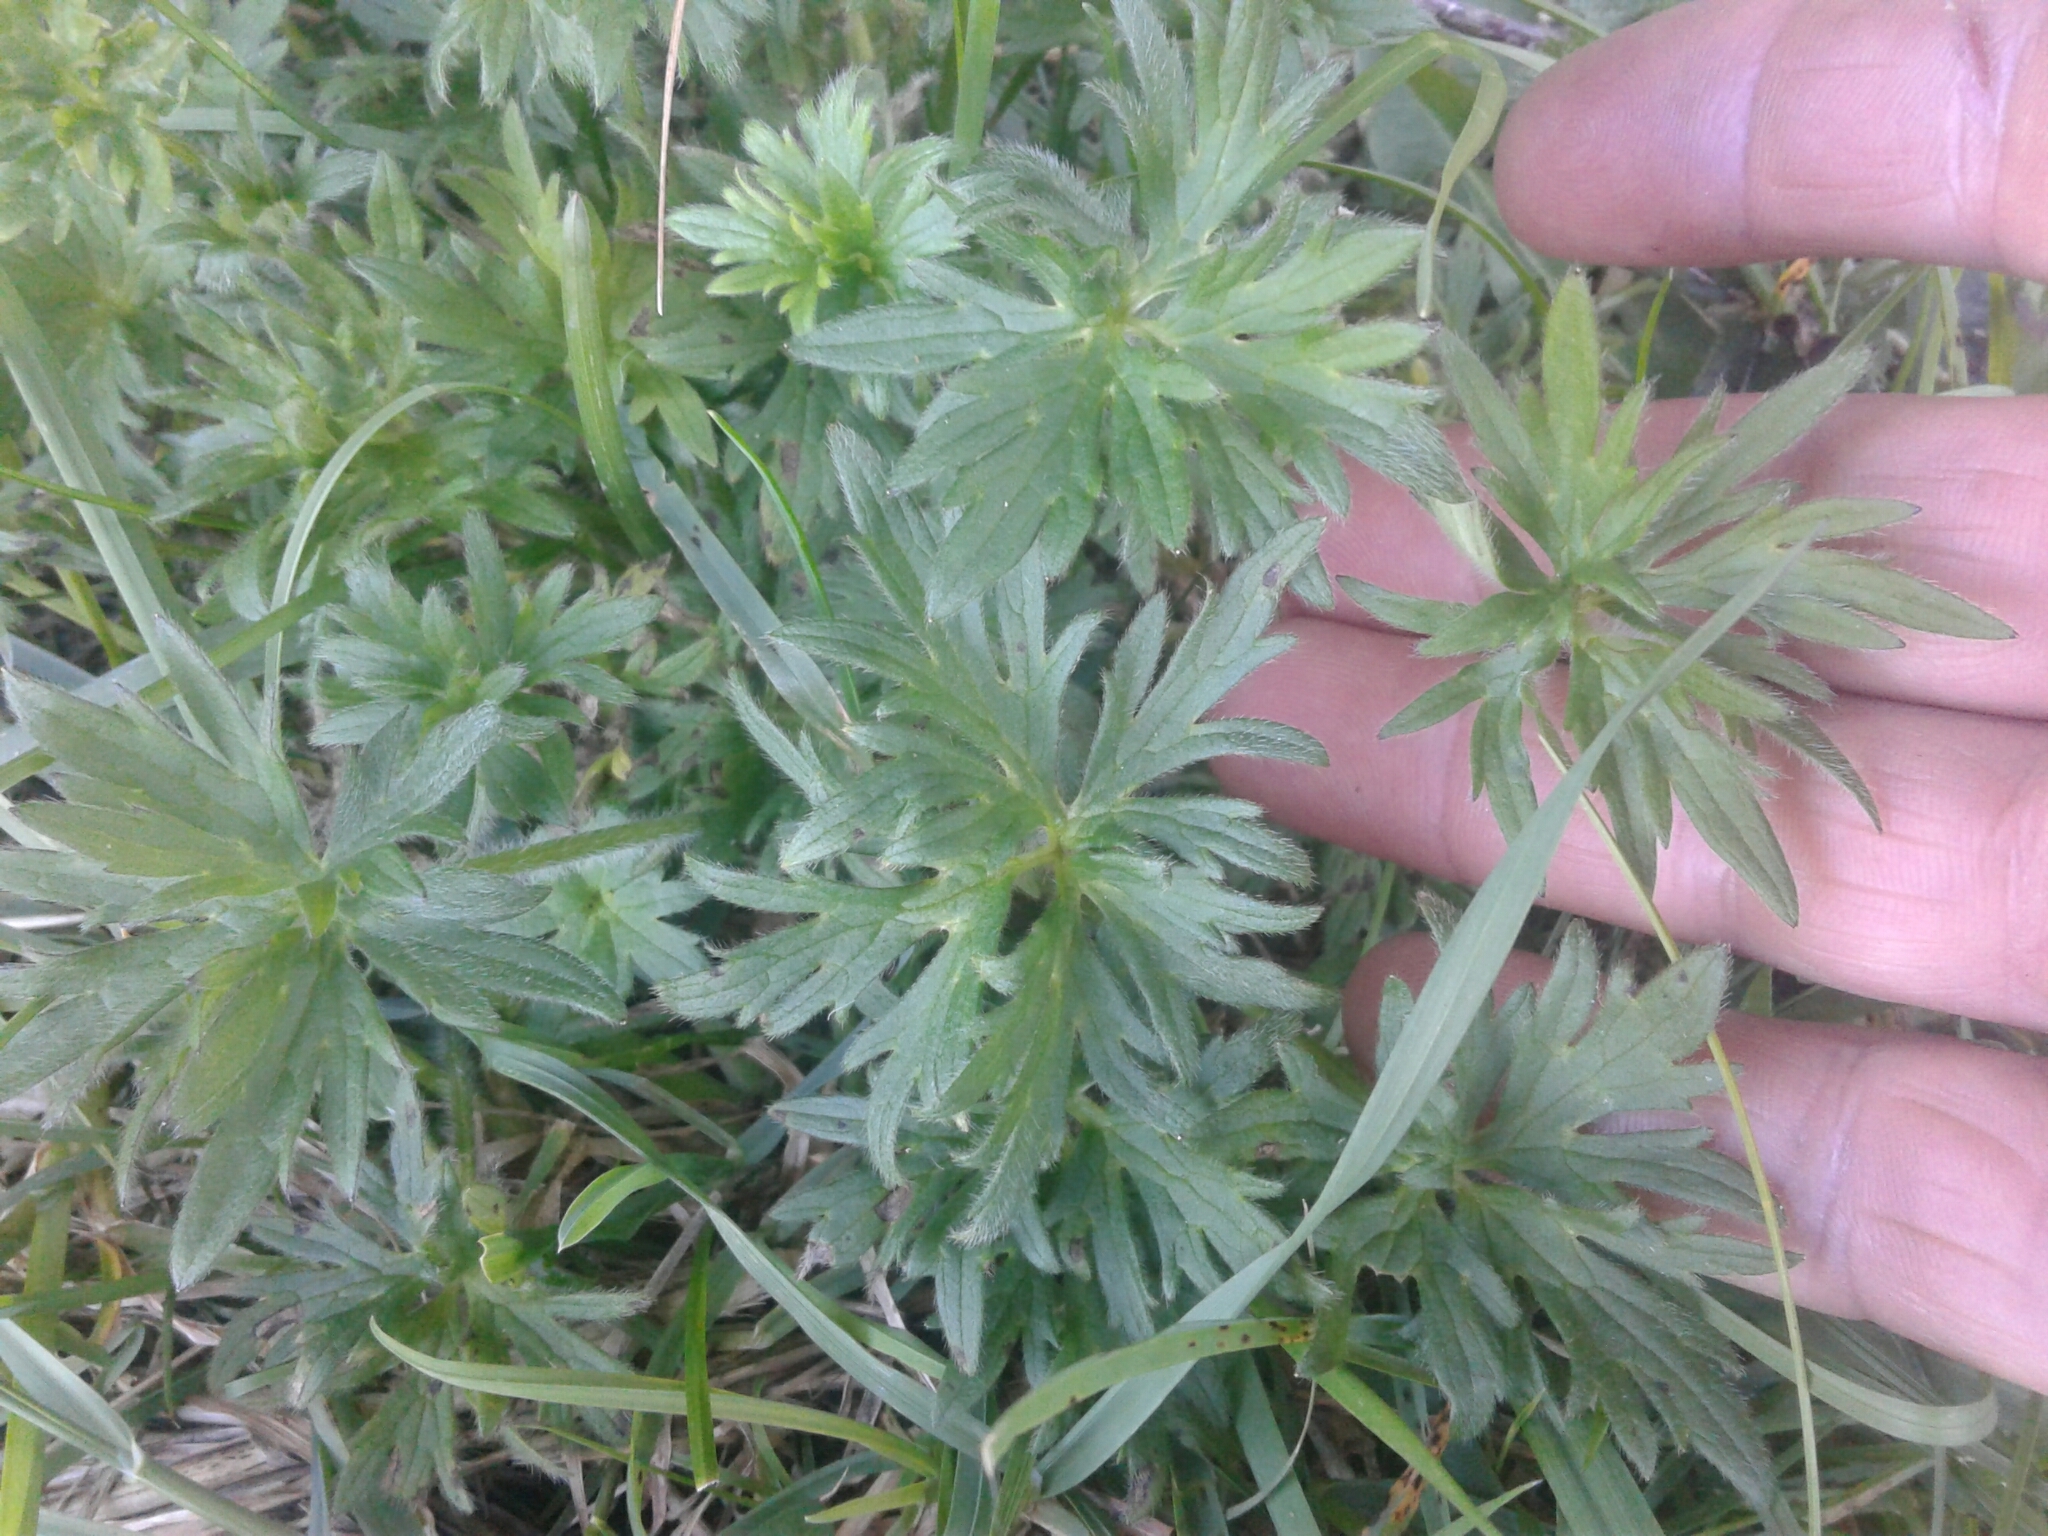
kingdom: Plantae
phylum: Tracheophyta
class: Magnoliopsida
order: Ranunculales
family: Ranunculaceae
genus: Ranunculus
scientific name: Ranunculus acris
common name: Meadow buttercup
